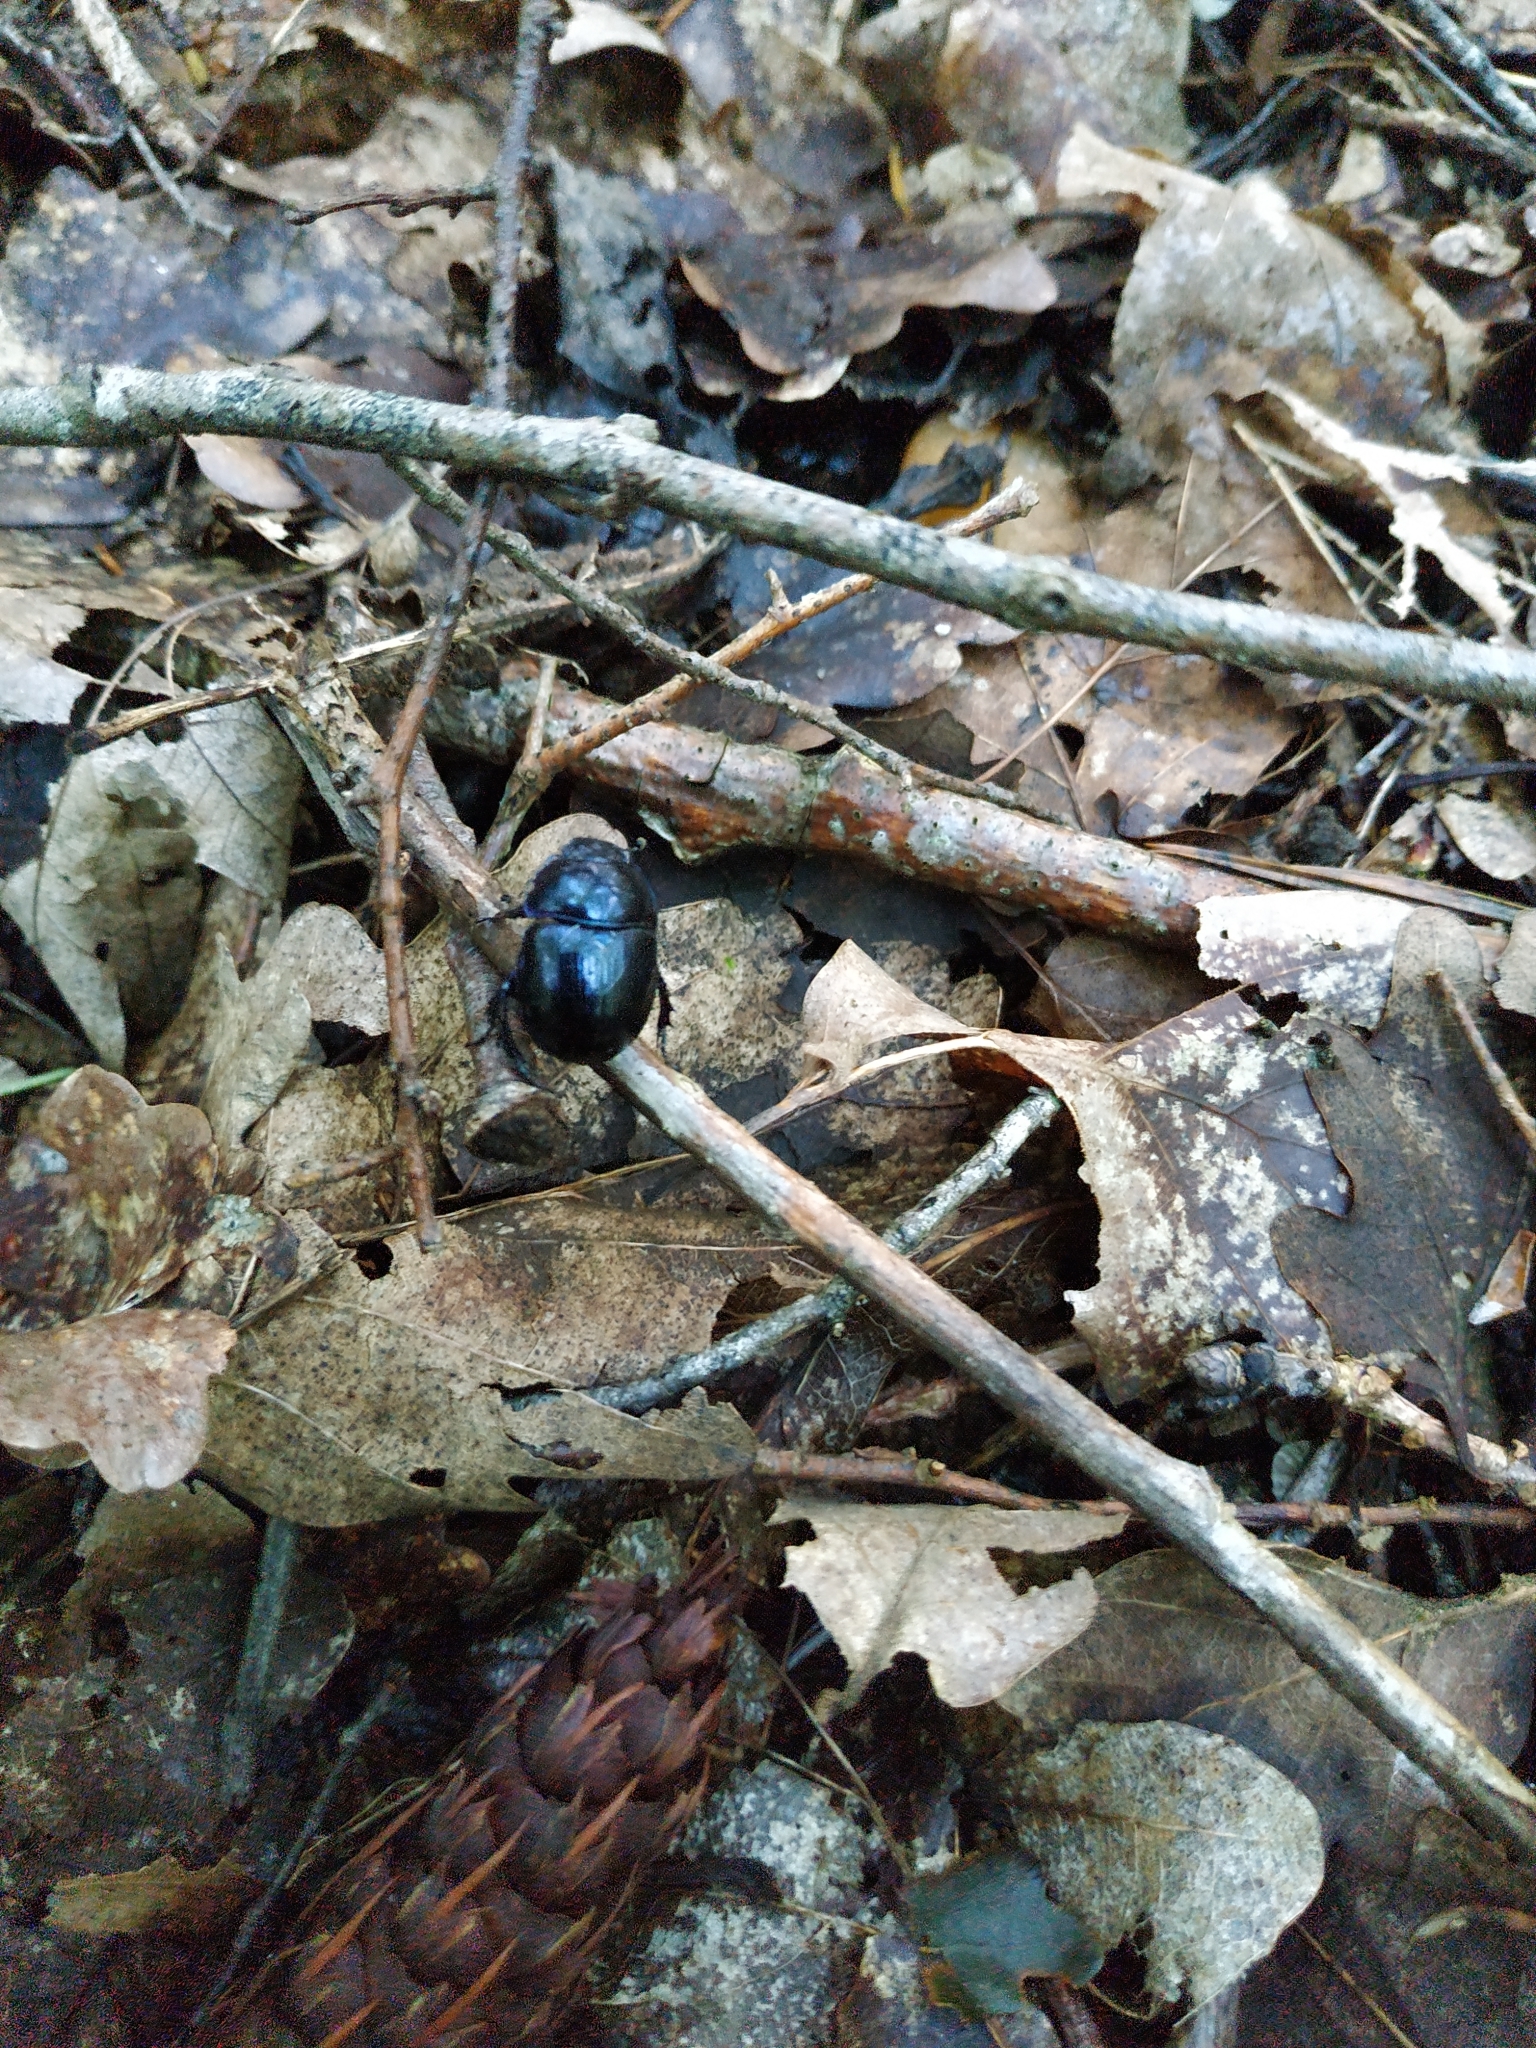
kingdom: Animalia
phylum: Arthropoda
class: Insecta
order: Coleoptera
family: Geotrupidae
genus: Anoplotrupes
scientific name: Anoplotrupes stercorosus
